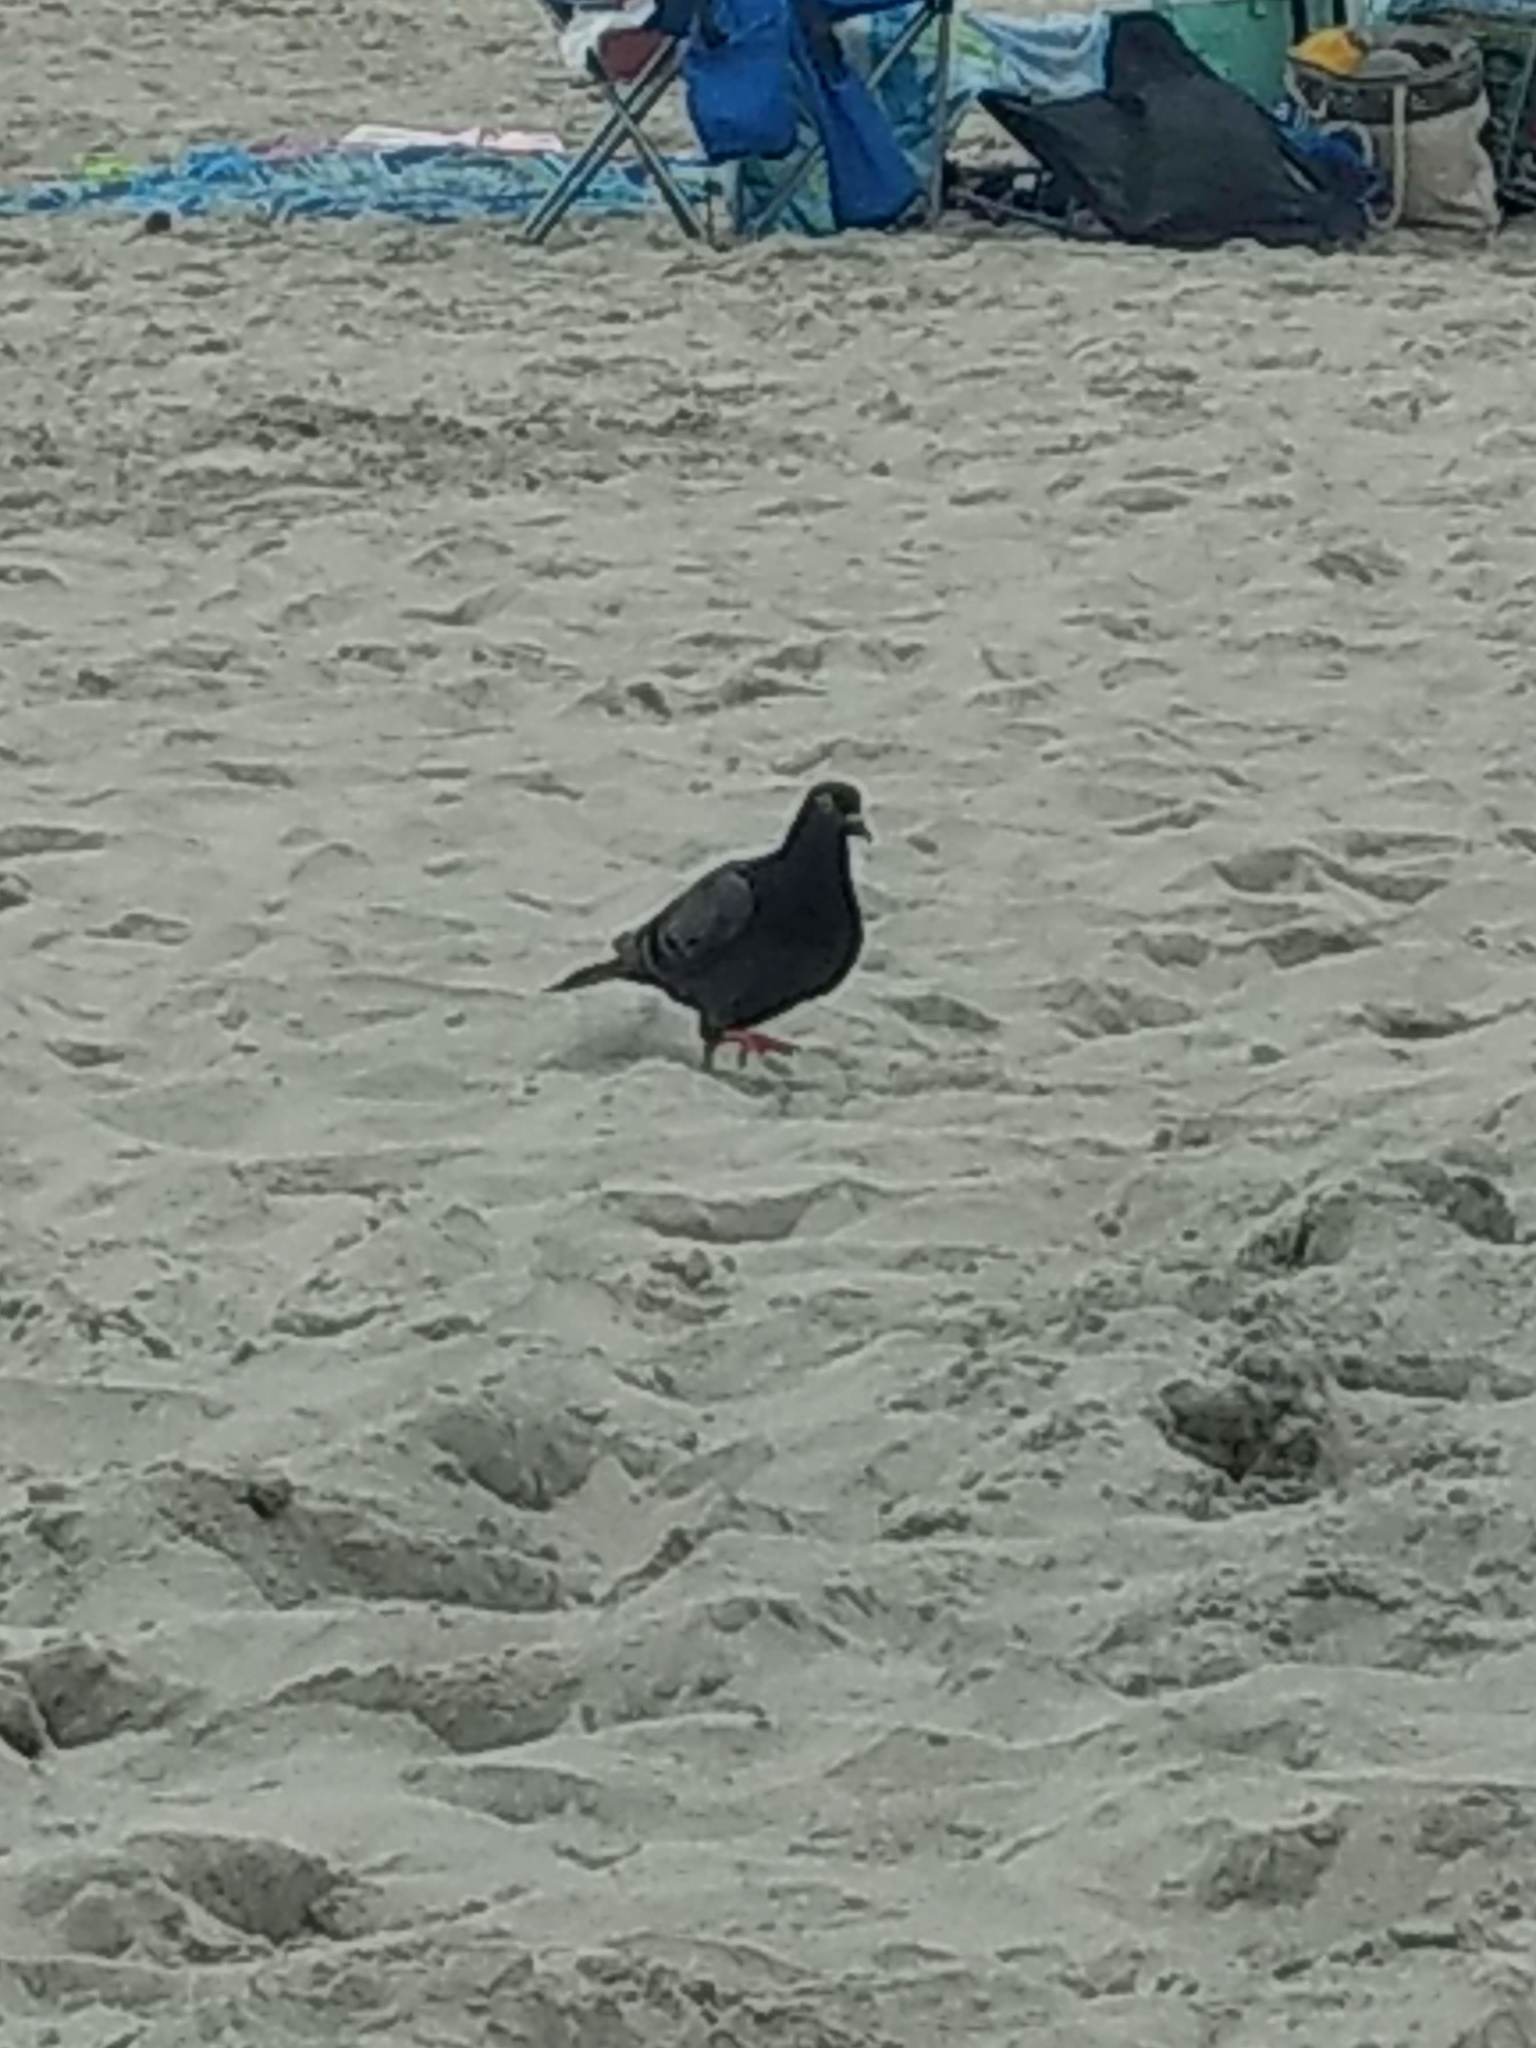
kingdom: Animalia
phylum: Chordata
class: Aves
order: Columbiformes
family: Columbidae
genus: Columba
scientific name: Columba livia
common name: Rock pigeon
